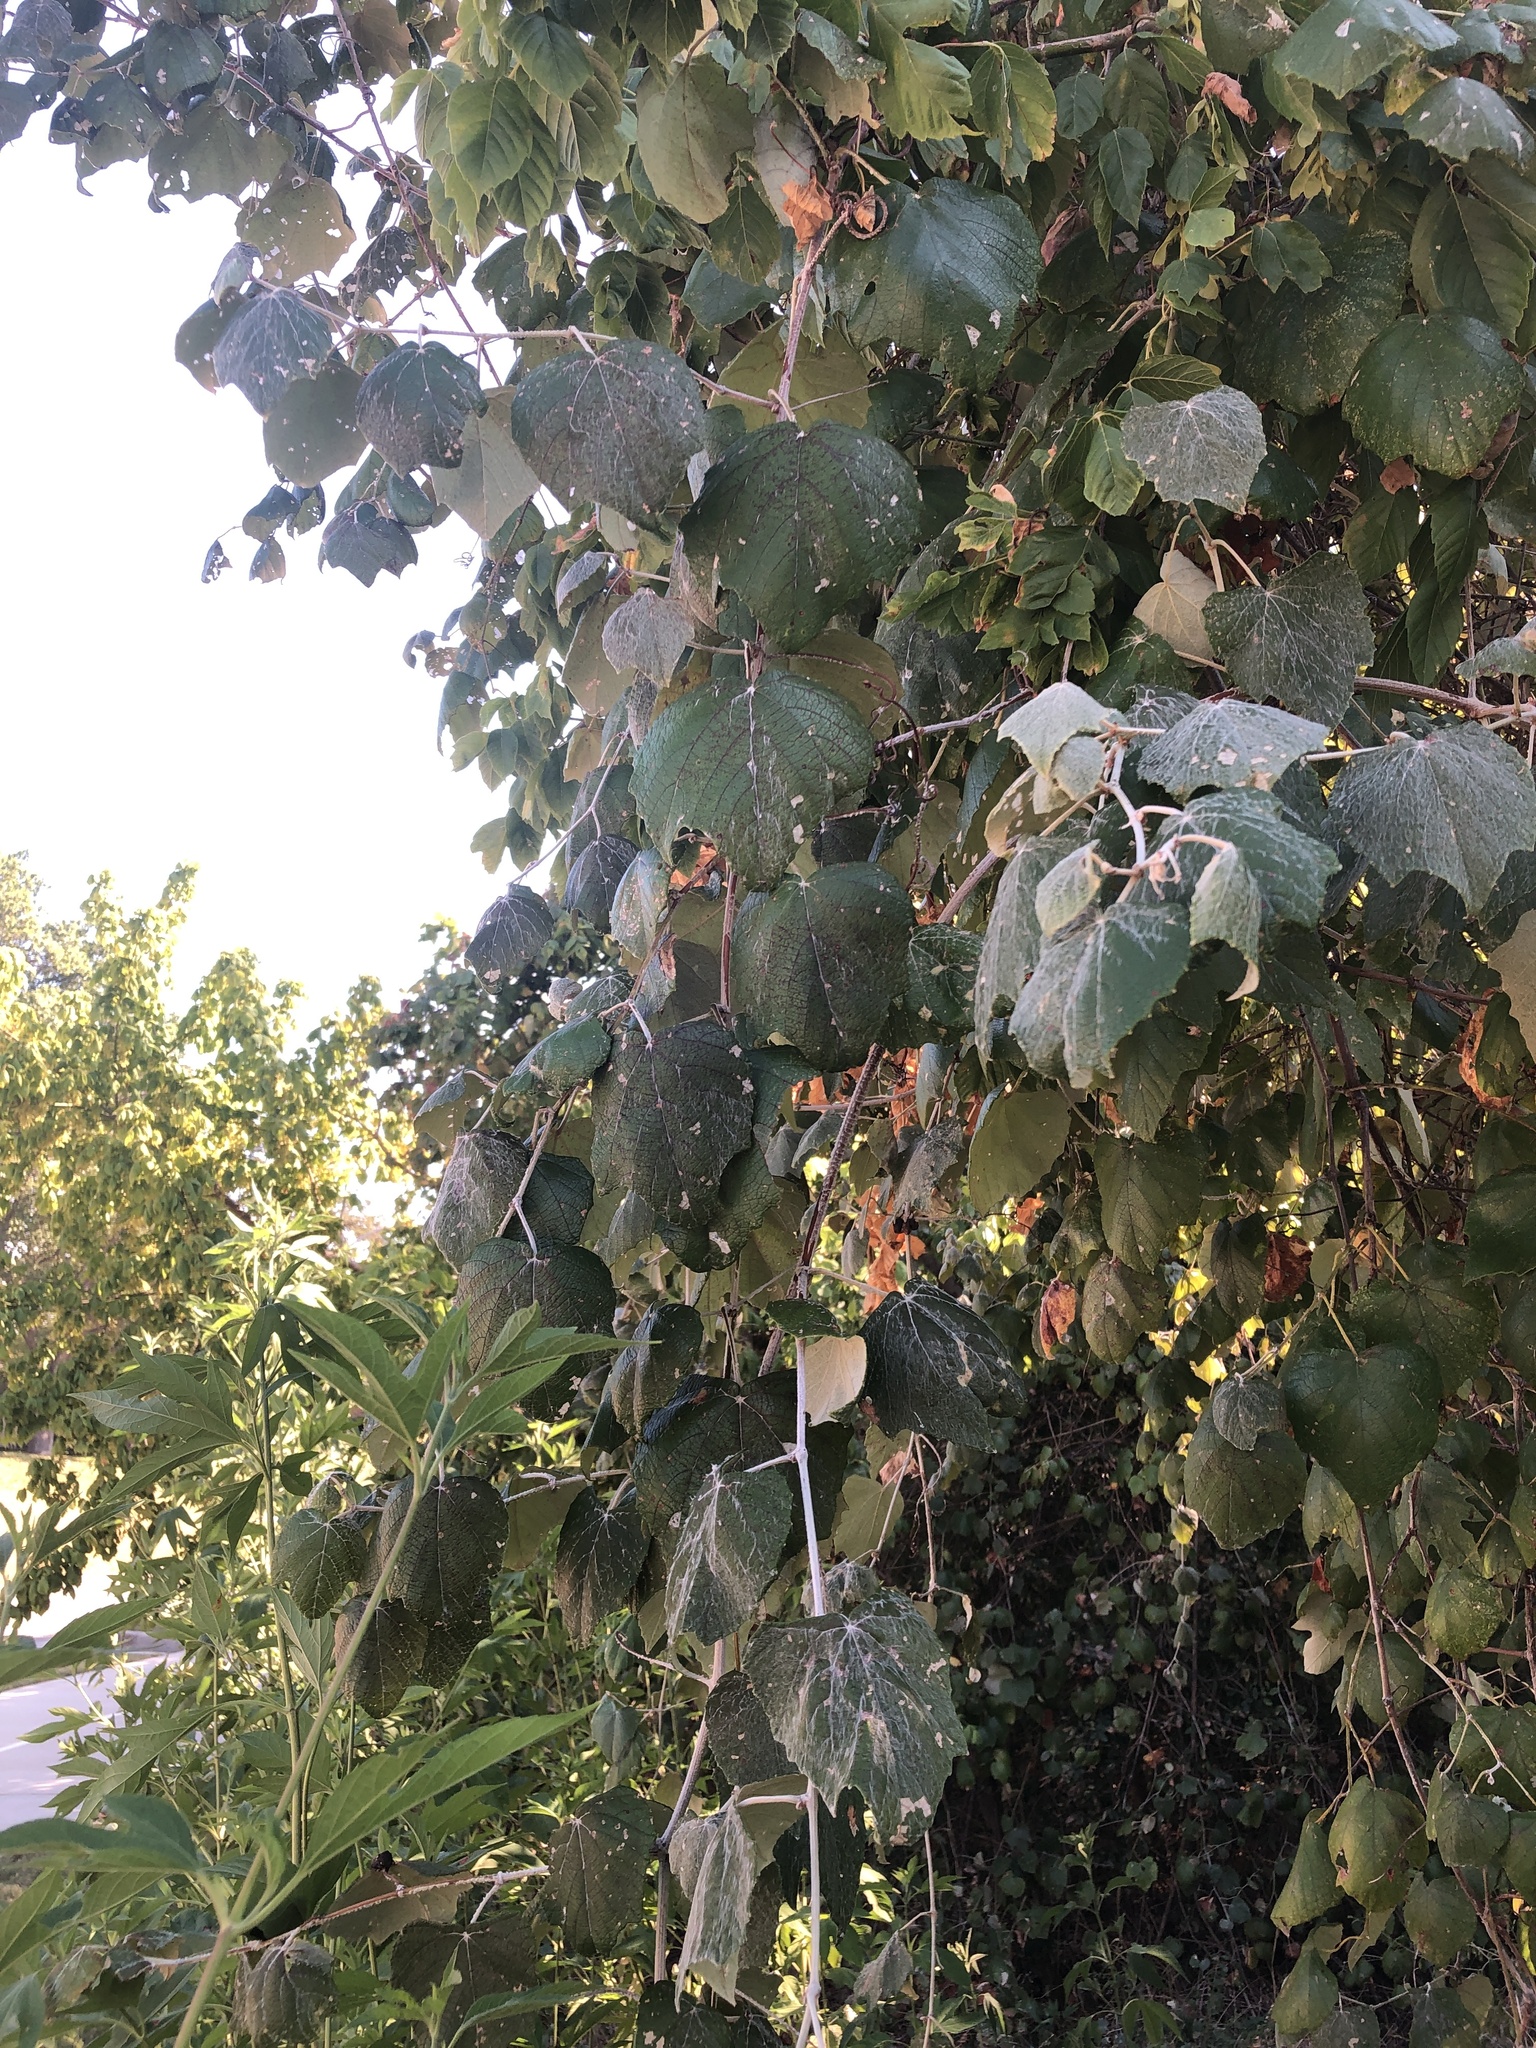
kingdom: Plantae
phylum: Tracheophyta
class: Magnoliopsida
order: Vitales
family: Vitaceae
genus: Vitis
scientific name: Vitis mustangensis
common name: Mustang grape
